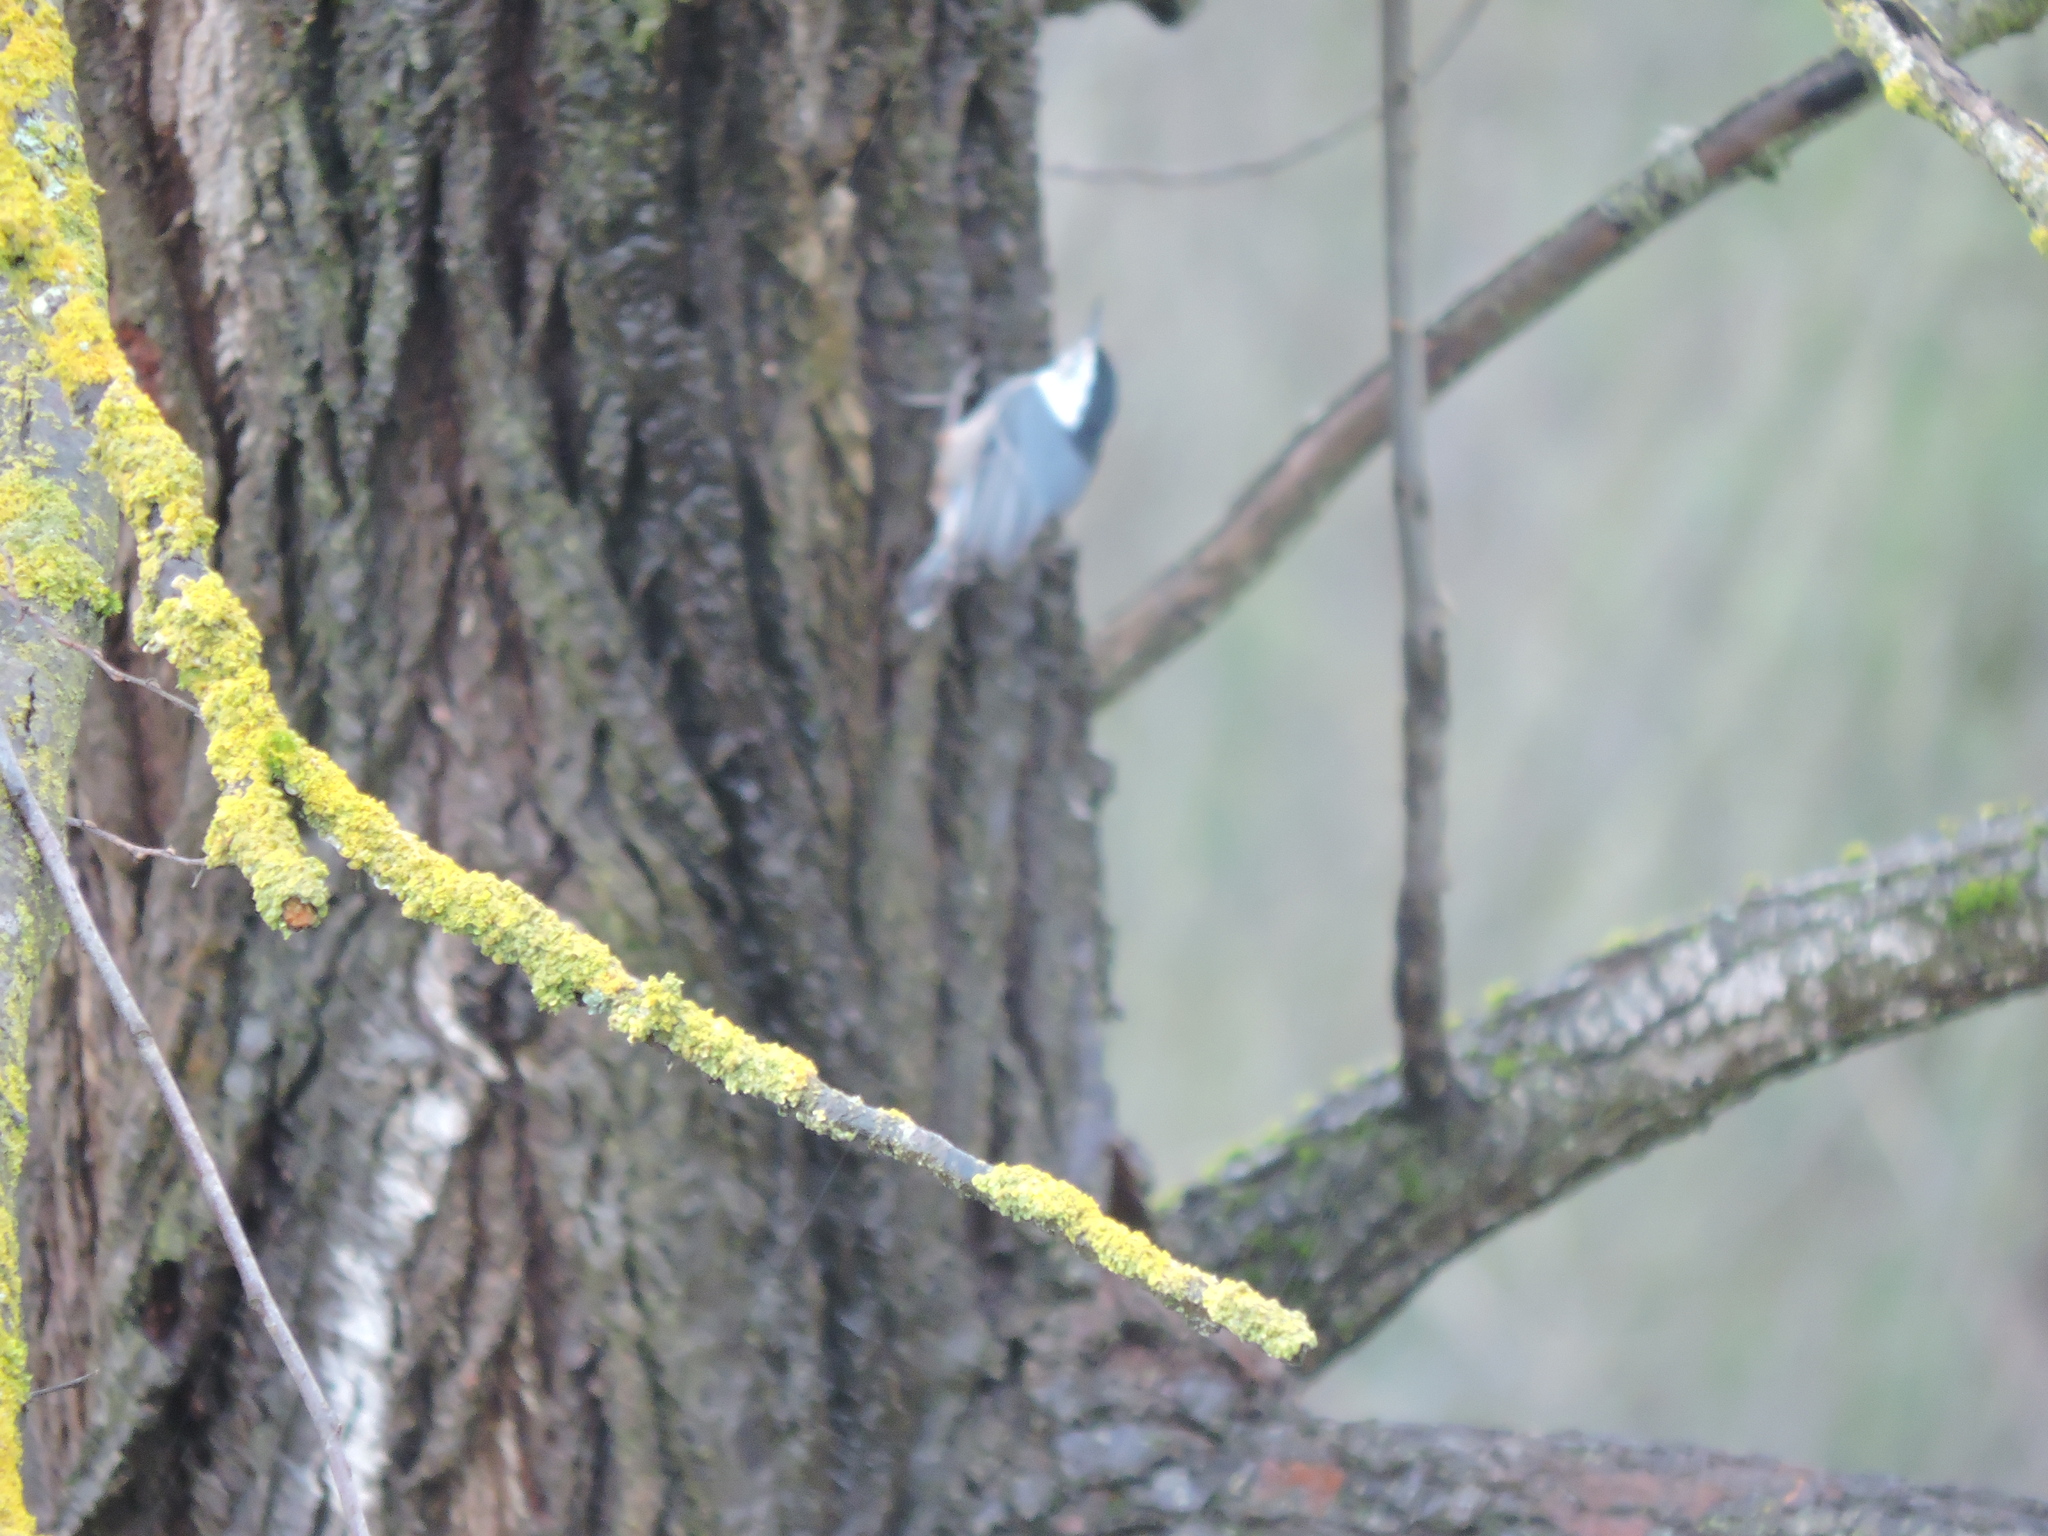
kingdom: Animalia
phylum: Chordata
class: Aves
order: Passeriformes
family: Sittidae
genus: Sitta
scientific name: Sitta carolinensis
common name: White-breasted nuthatch
